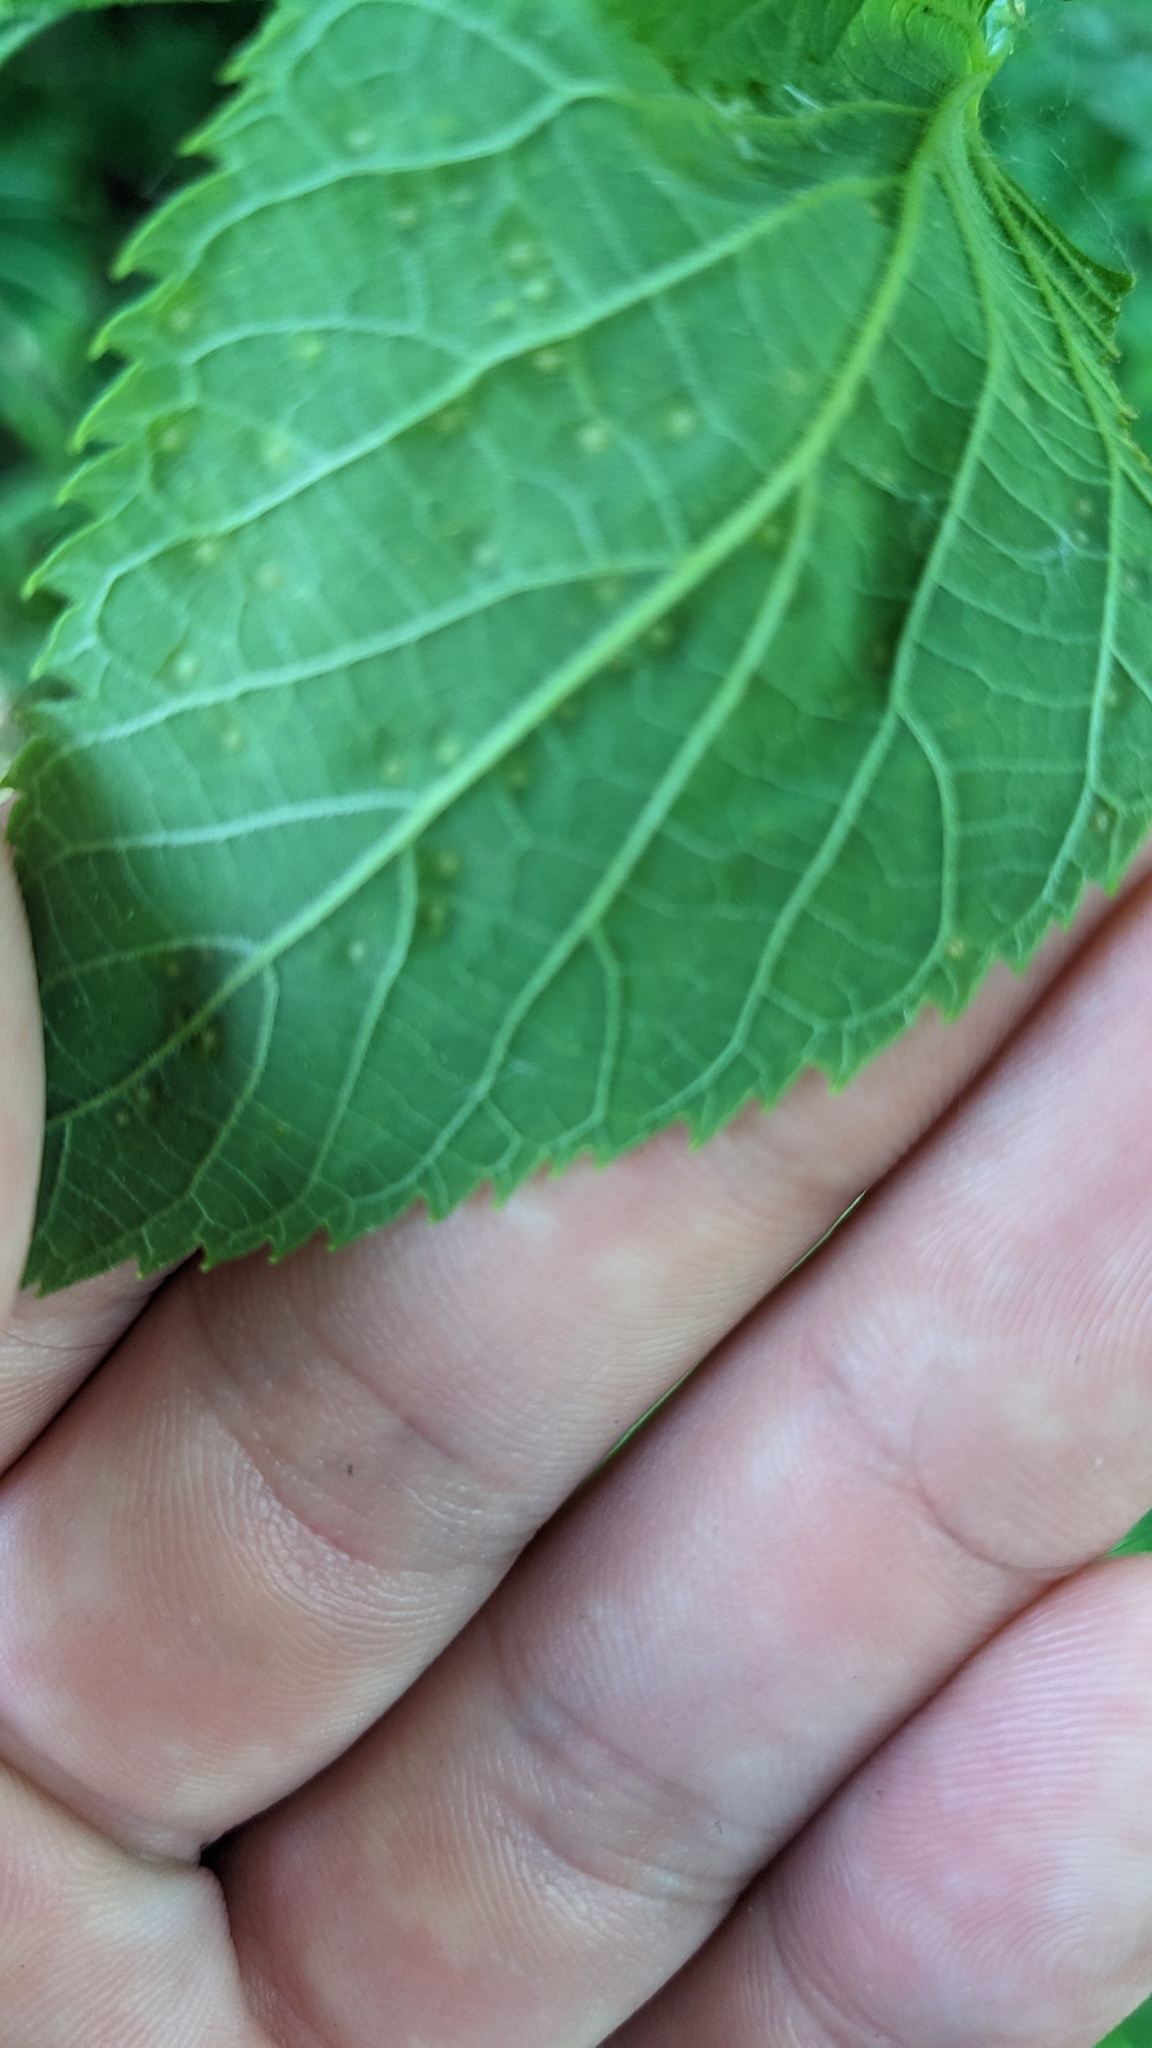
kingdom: Animalia
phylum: Arthropoda
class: Insecta
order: Hemiptera
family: Aphalaridae
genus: Pachypsylla
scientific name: Pachypsylla celtidisvesicula
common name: Hackberry blister gall psyllid
